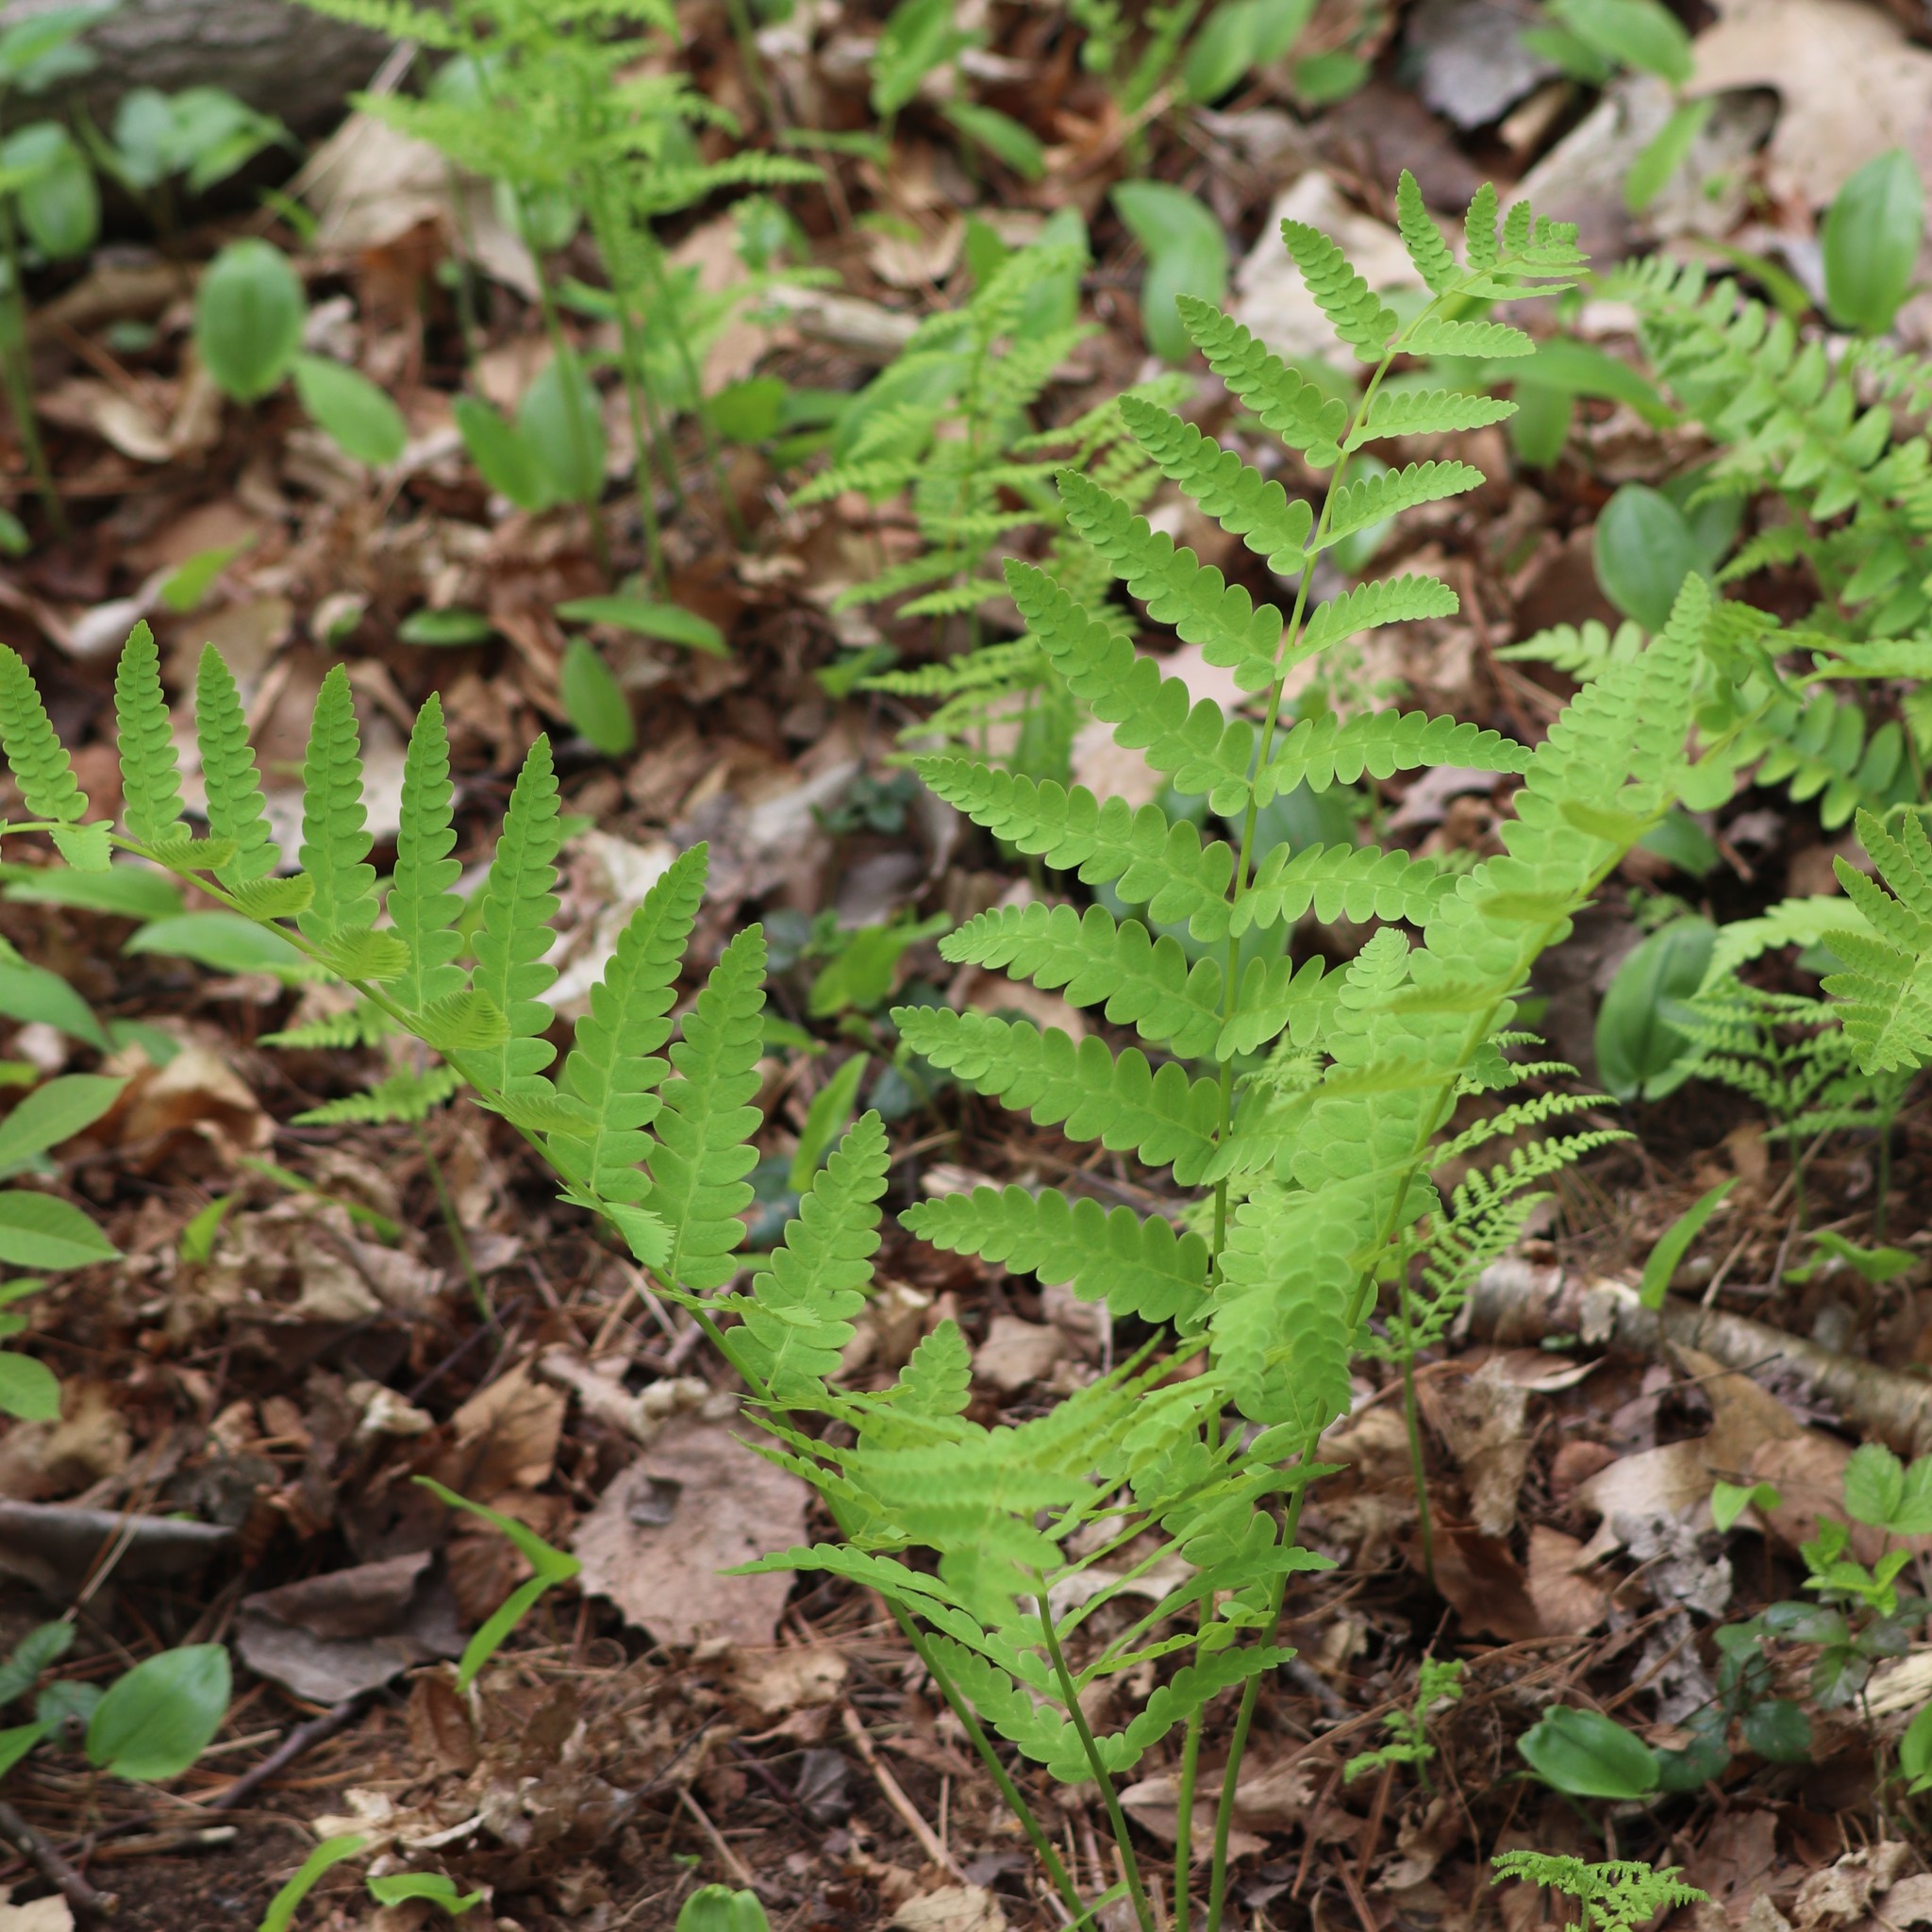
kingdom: Plantae
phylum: Tracheophyta
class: Polypodiopsida
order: Osmundales
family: Osmundaceae
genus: Claytosmunda
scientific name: Claytosmunda claytoniana
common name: Clayton's fern
